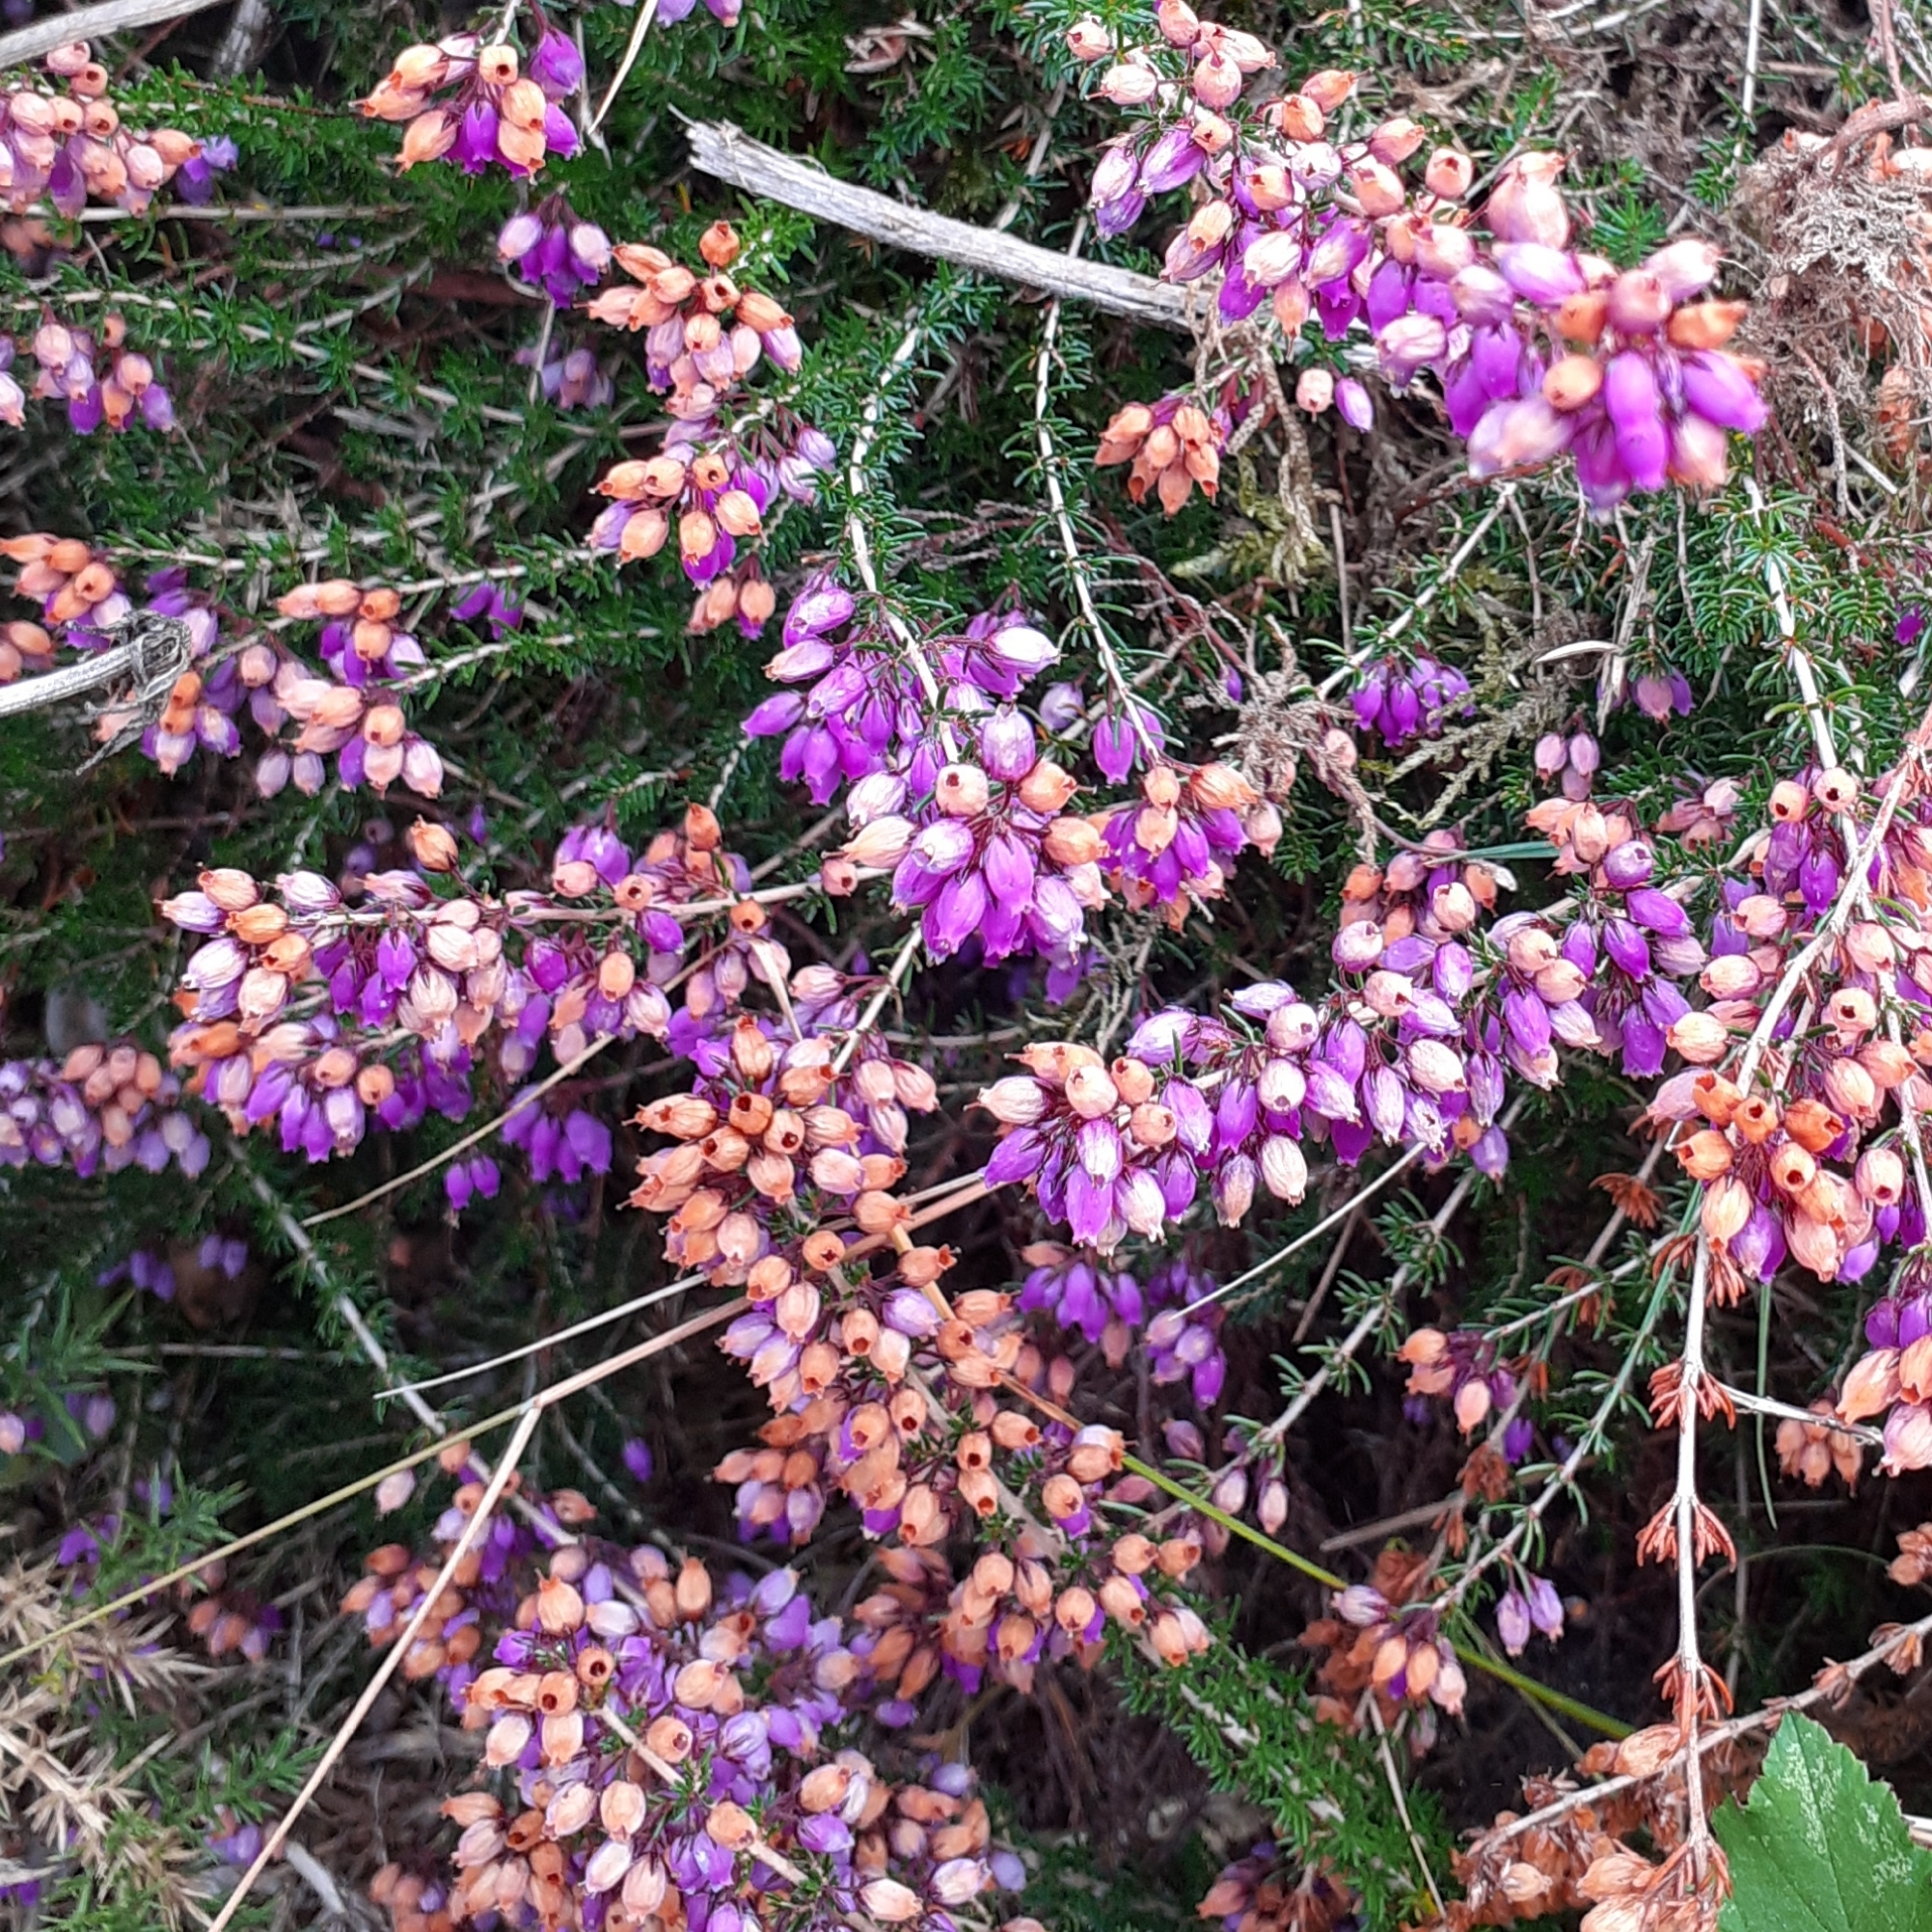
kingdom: Plantae
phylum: Tracheophyta
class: Magnoliopsida
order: Ericales
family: Ericaceae
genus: Erica
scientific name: Erica cinerea
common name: Bell heather
